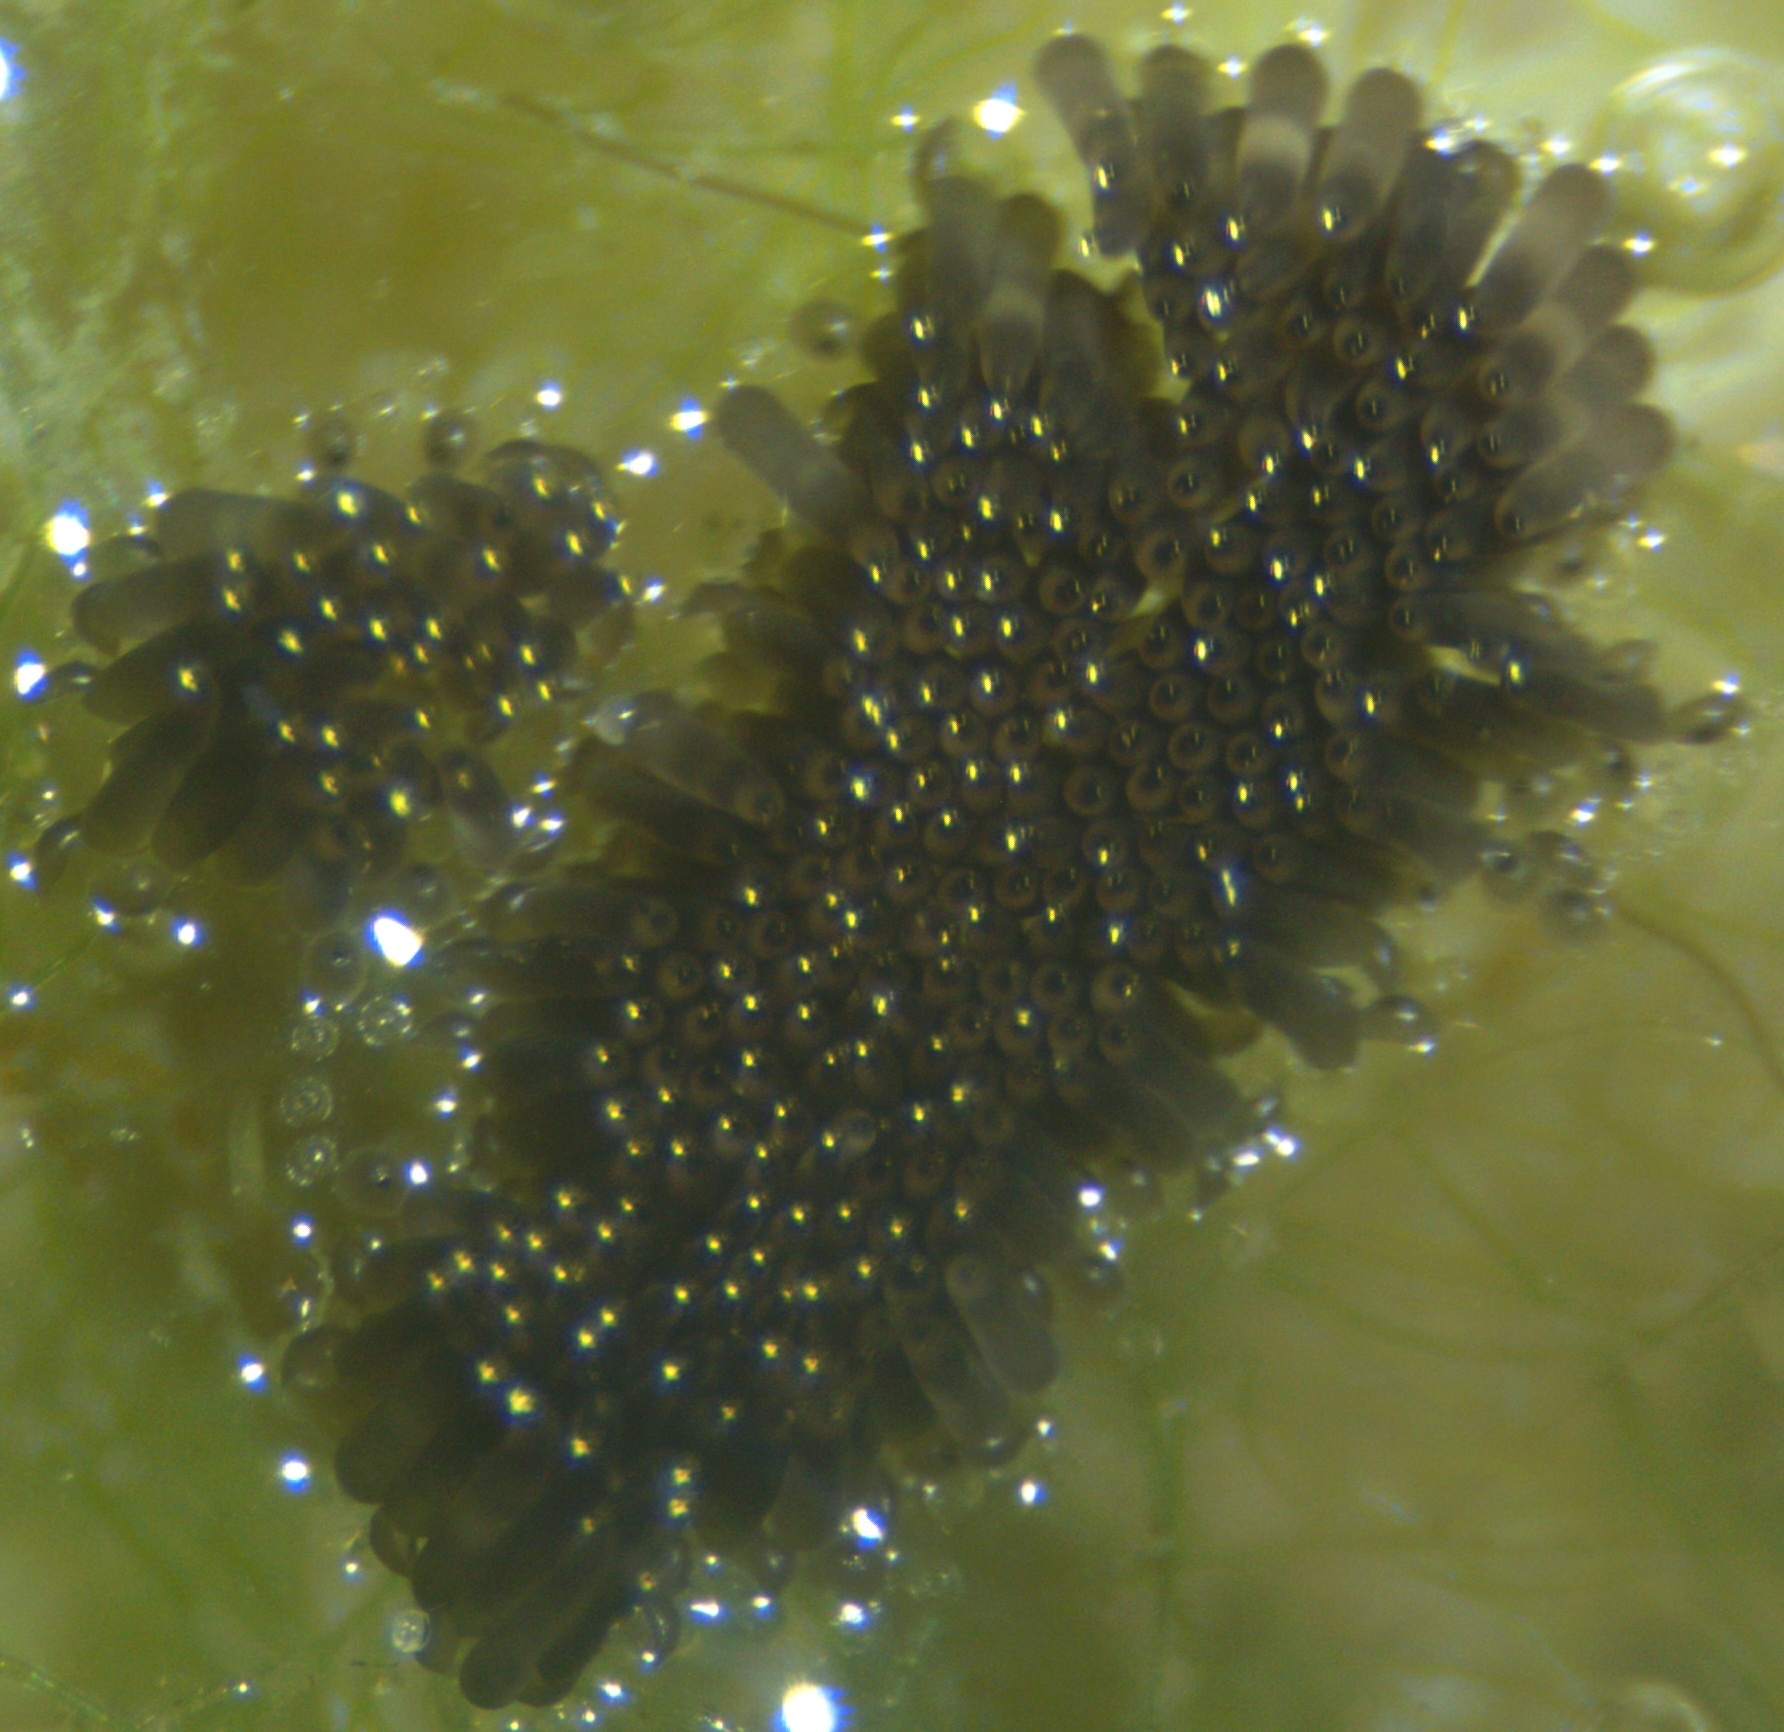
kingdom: Animalia
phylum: Arthropoda
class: Insecta
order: Diptera
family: Culicidae
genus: Culex
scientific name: Culex
